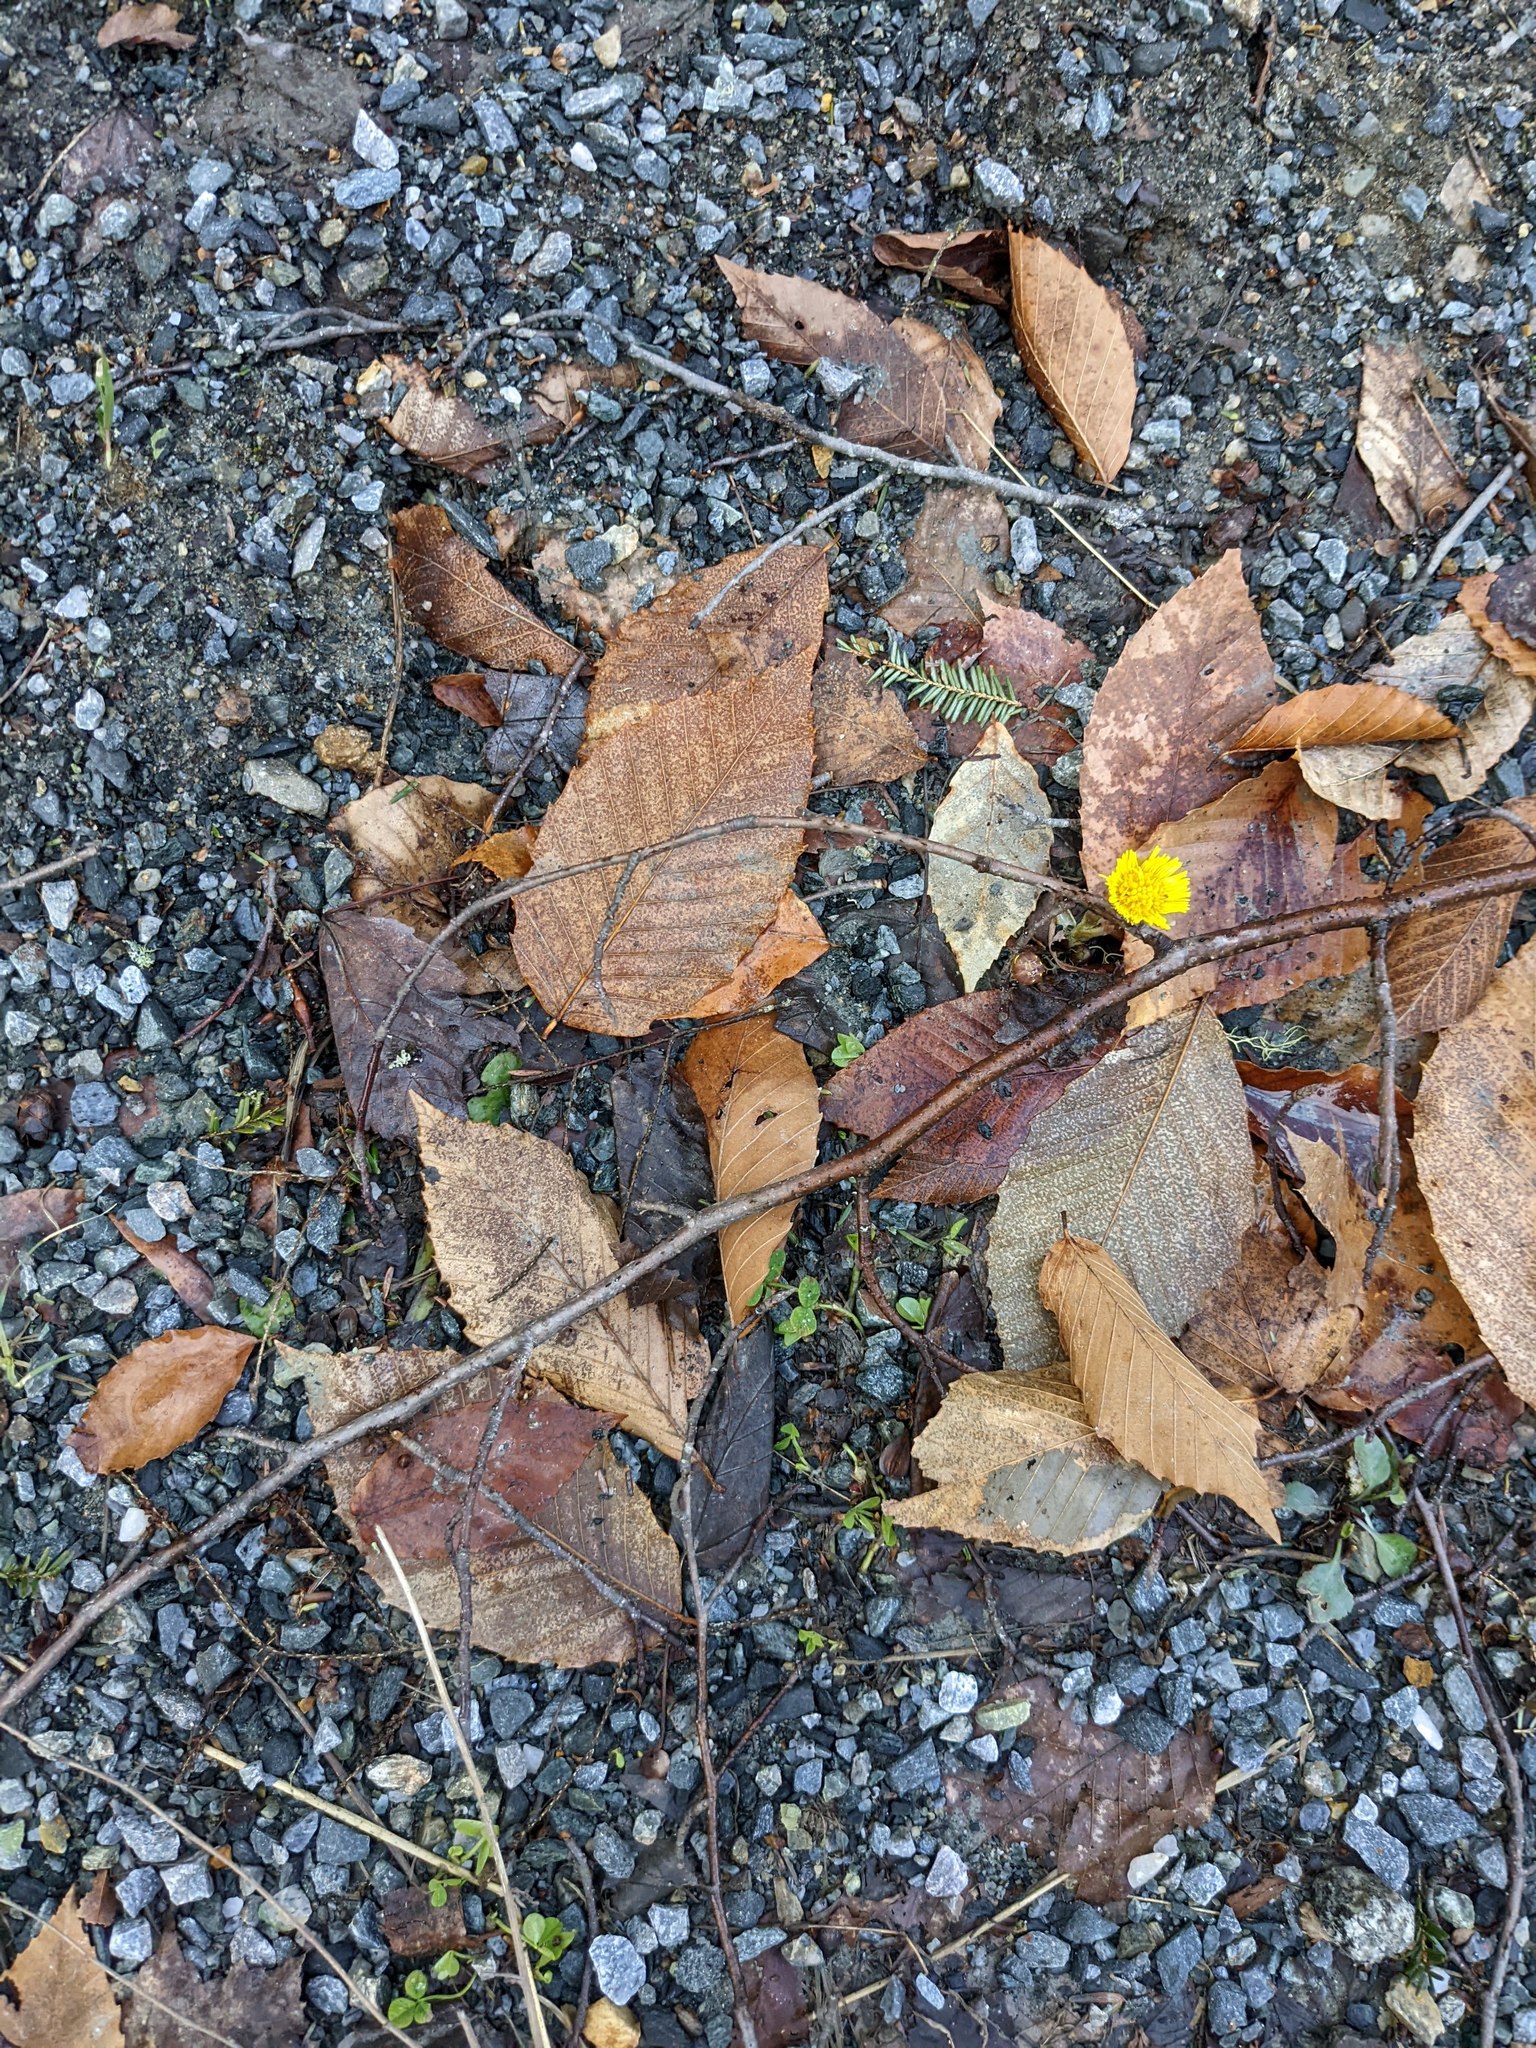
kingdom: Plantae
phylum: Tracheophyta
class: Magnoliopsida
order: Fagales
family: Fagaceae
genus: Fagus
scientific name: Fagus grandifolia
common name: American beech
